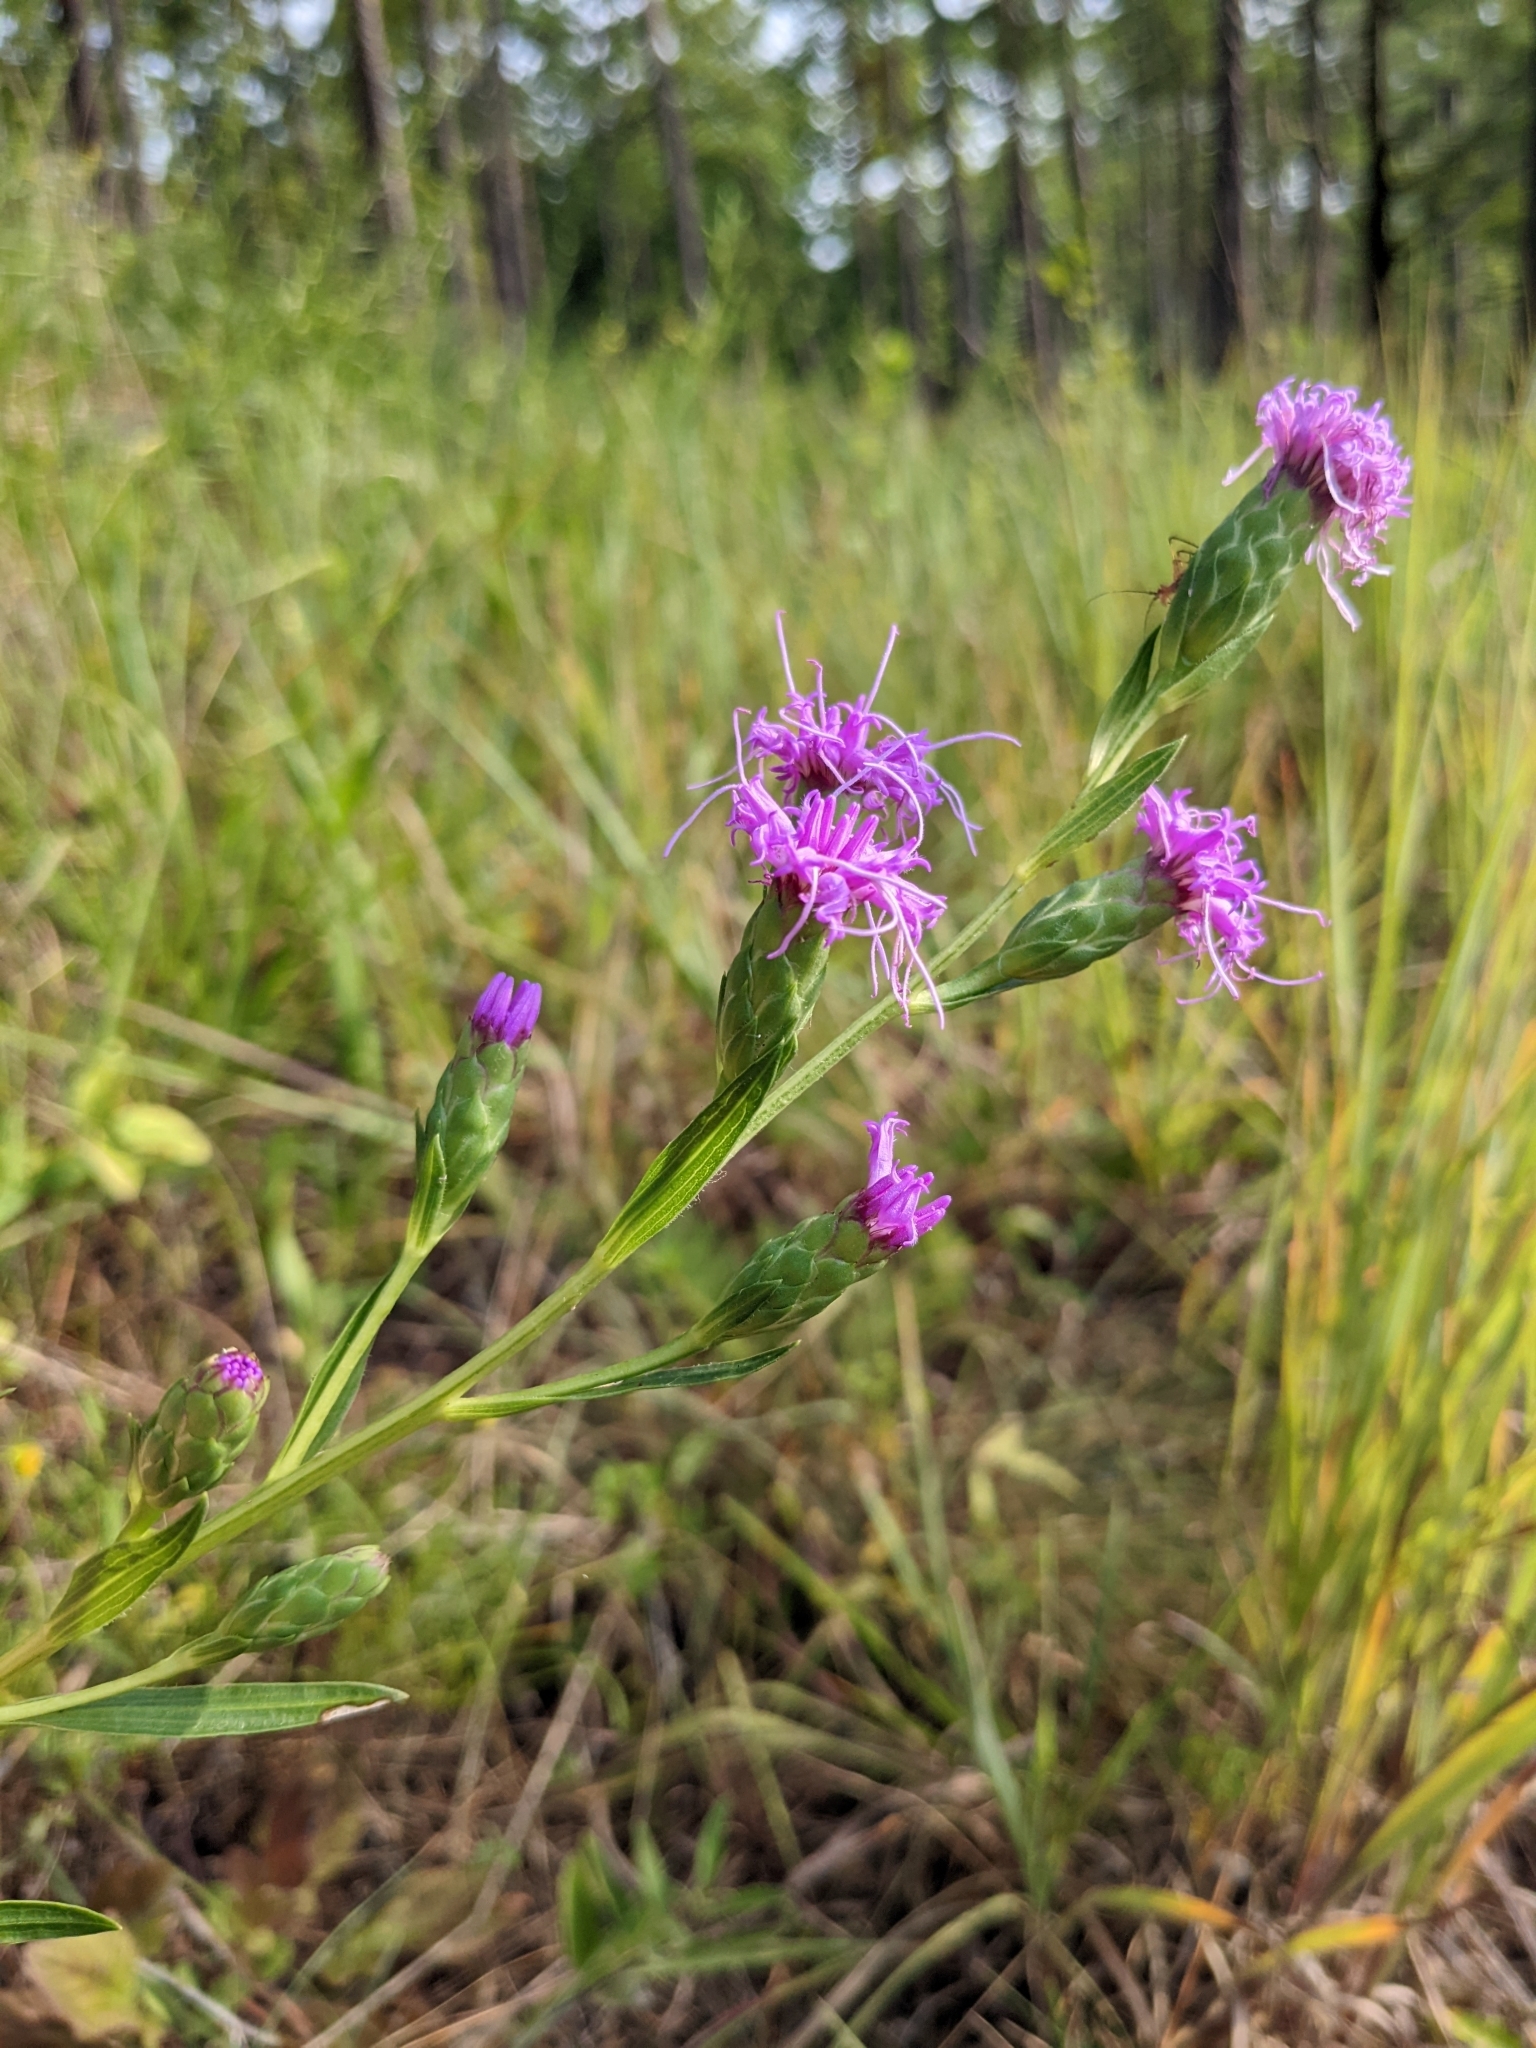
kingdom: Plantae
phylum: Tracheophyta
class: Magnoliopsida
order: Asterales
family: Asteraceae
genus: Liatris
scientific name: Liatris cylindracea
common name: Few-head blazingstar
